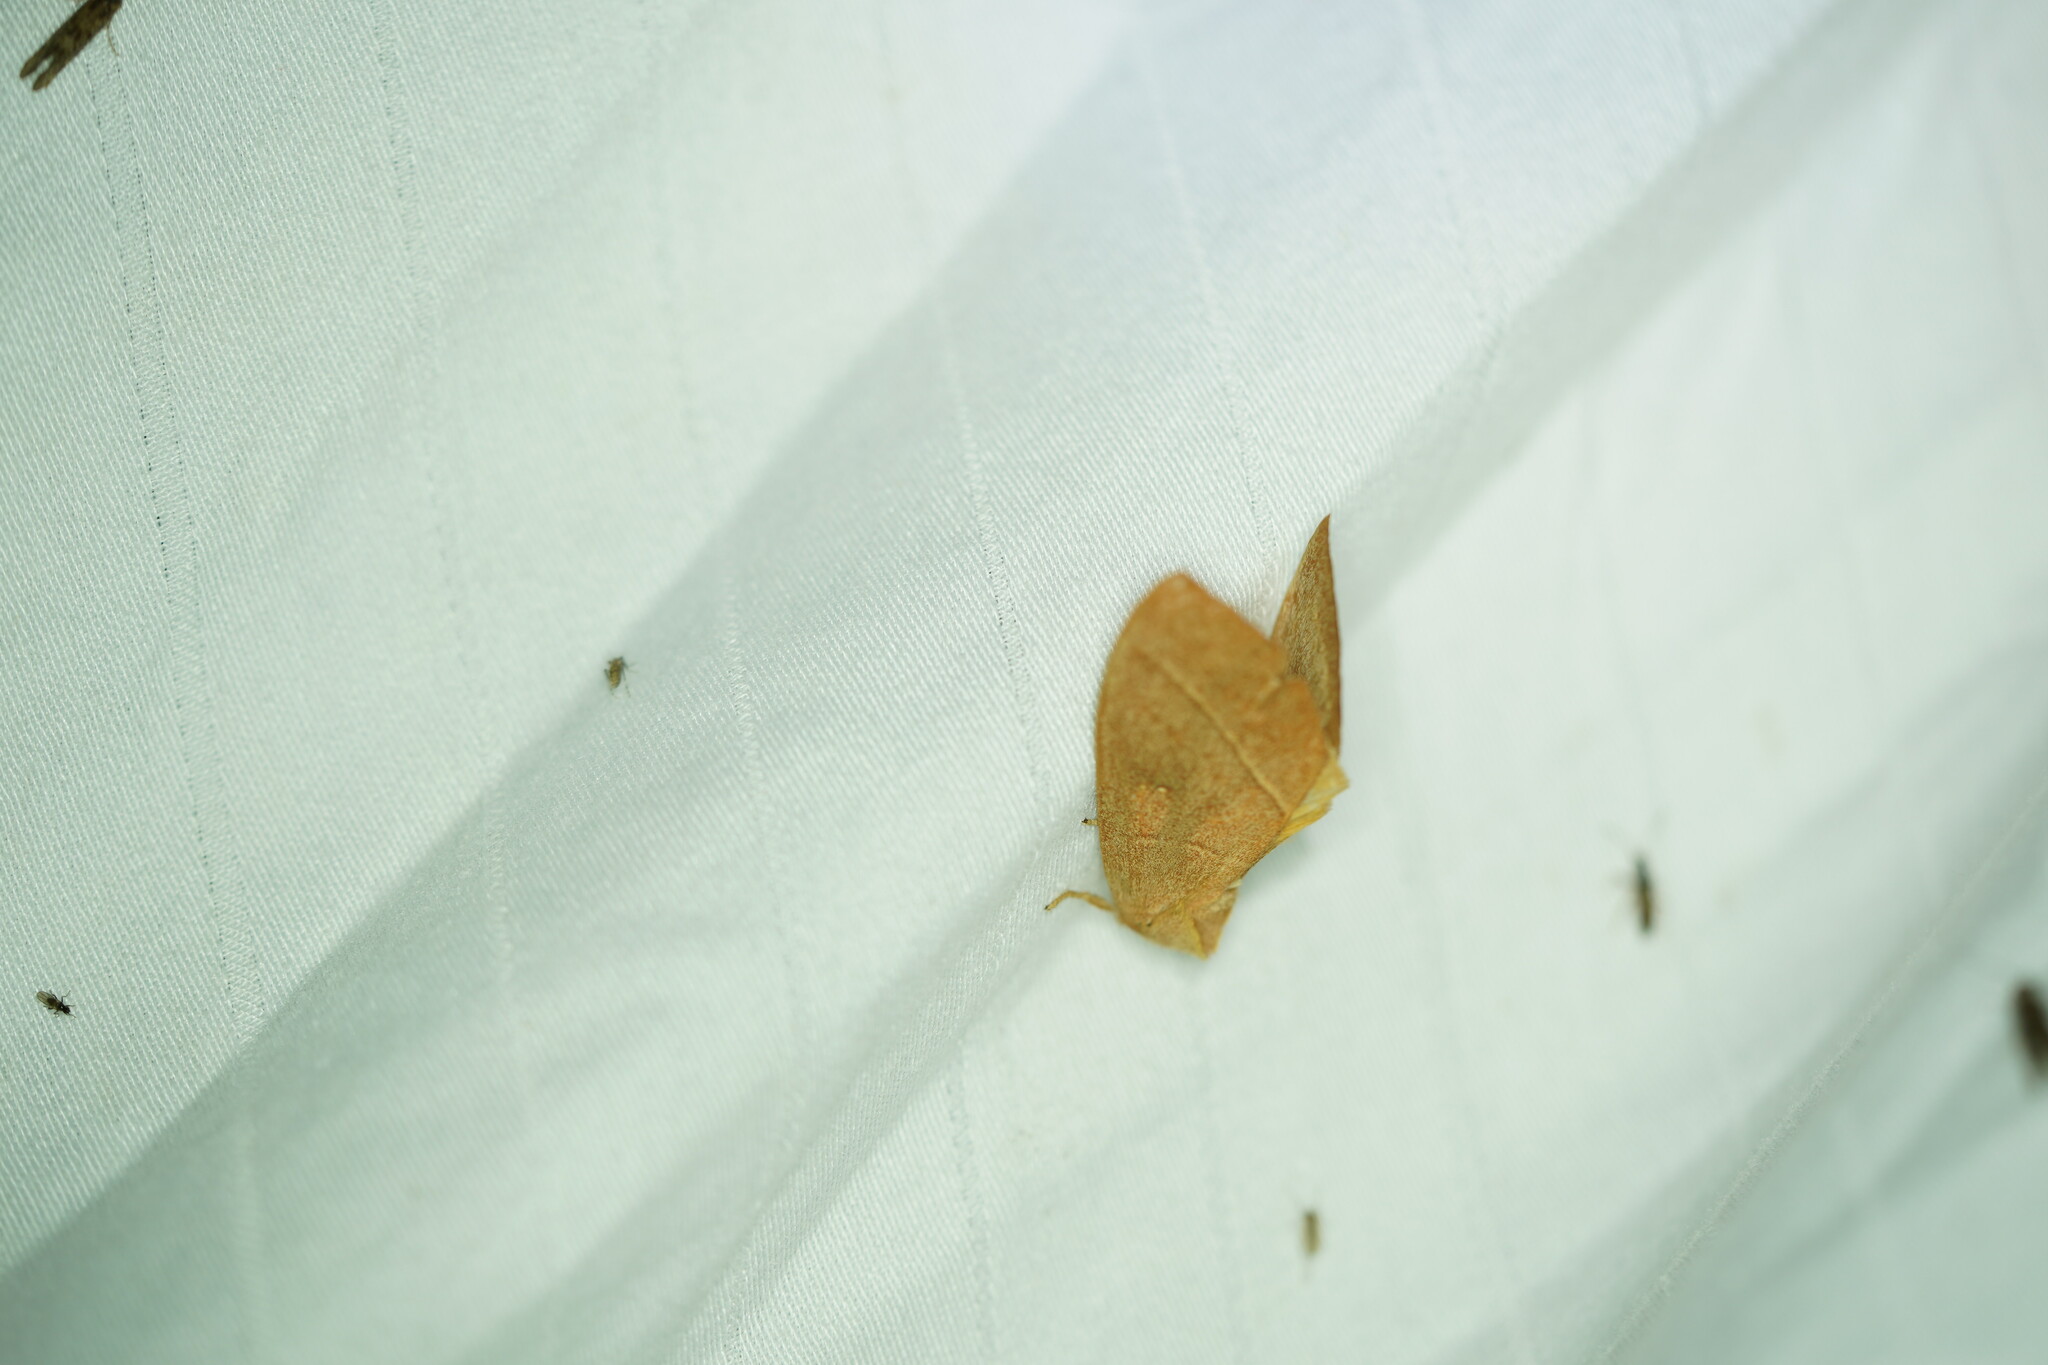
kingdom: Animalia
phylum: Arthropoda
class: Insecta
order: Lepidoptera
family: Notodontidae
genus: Nadata
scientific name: Nadata gibbosa
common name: White-dotted prominent
